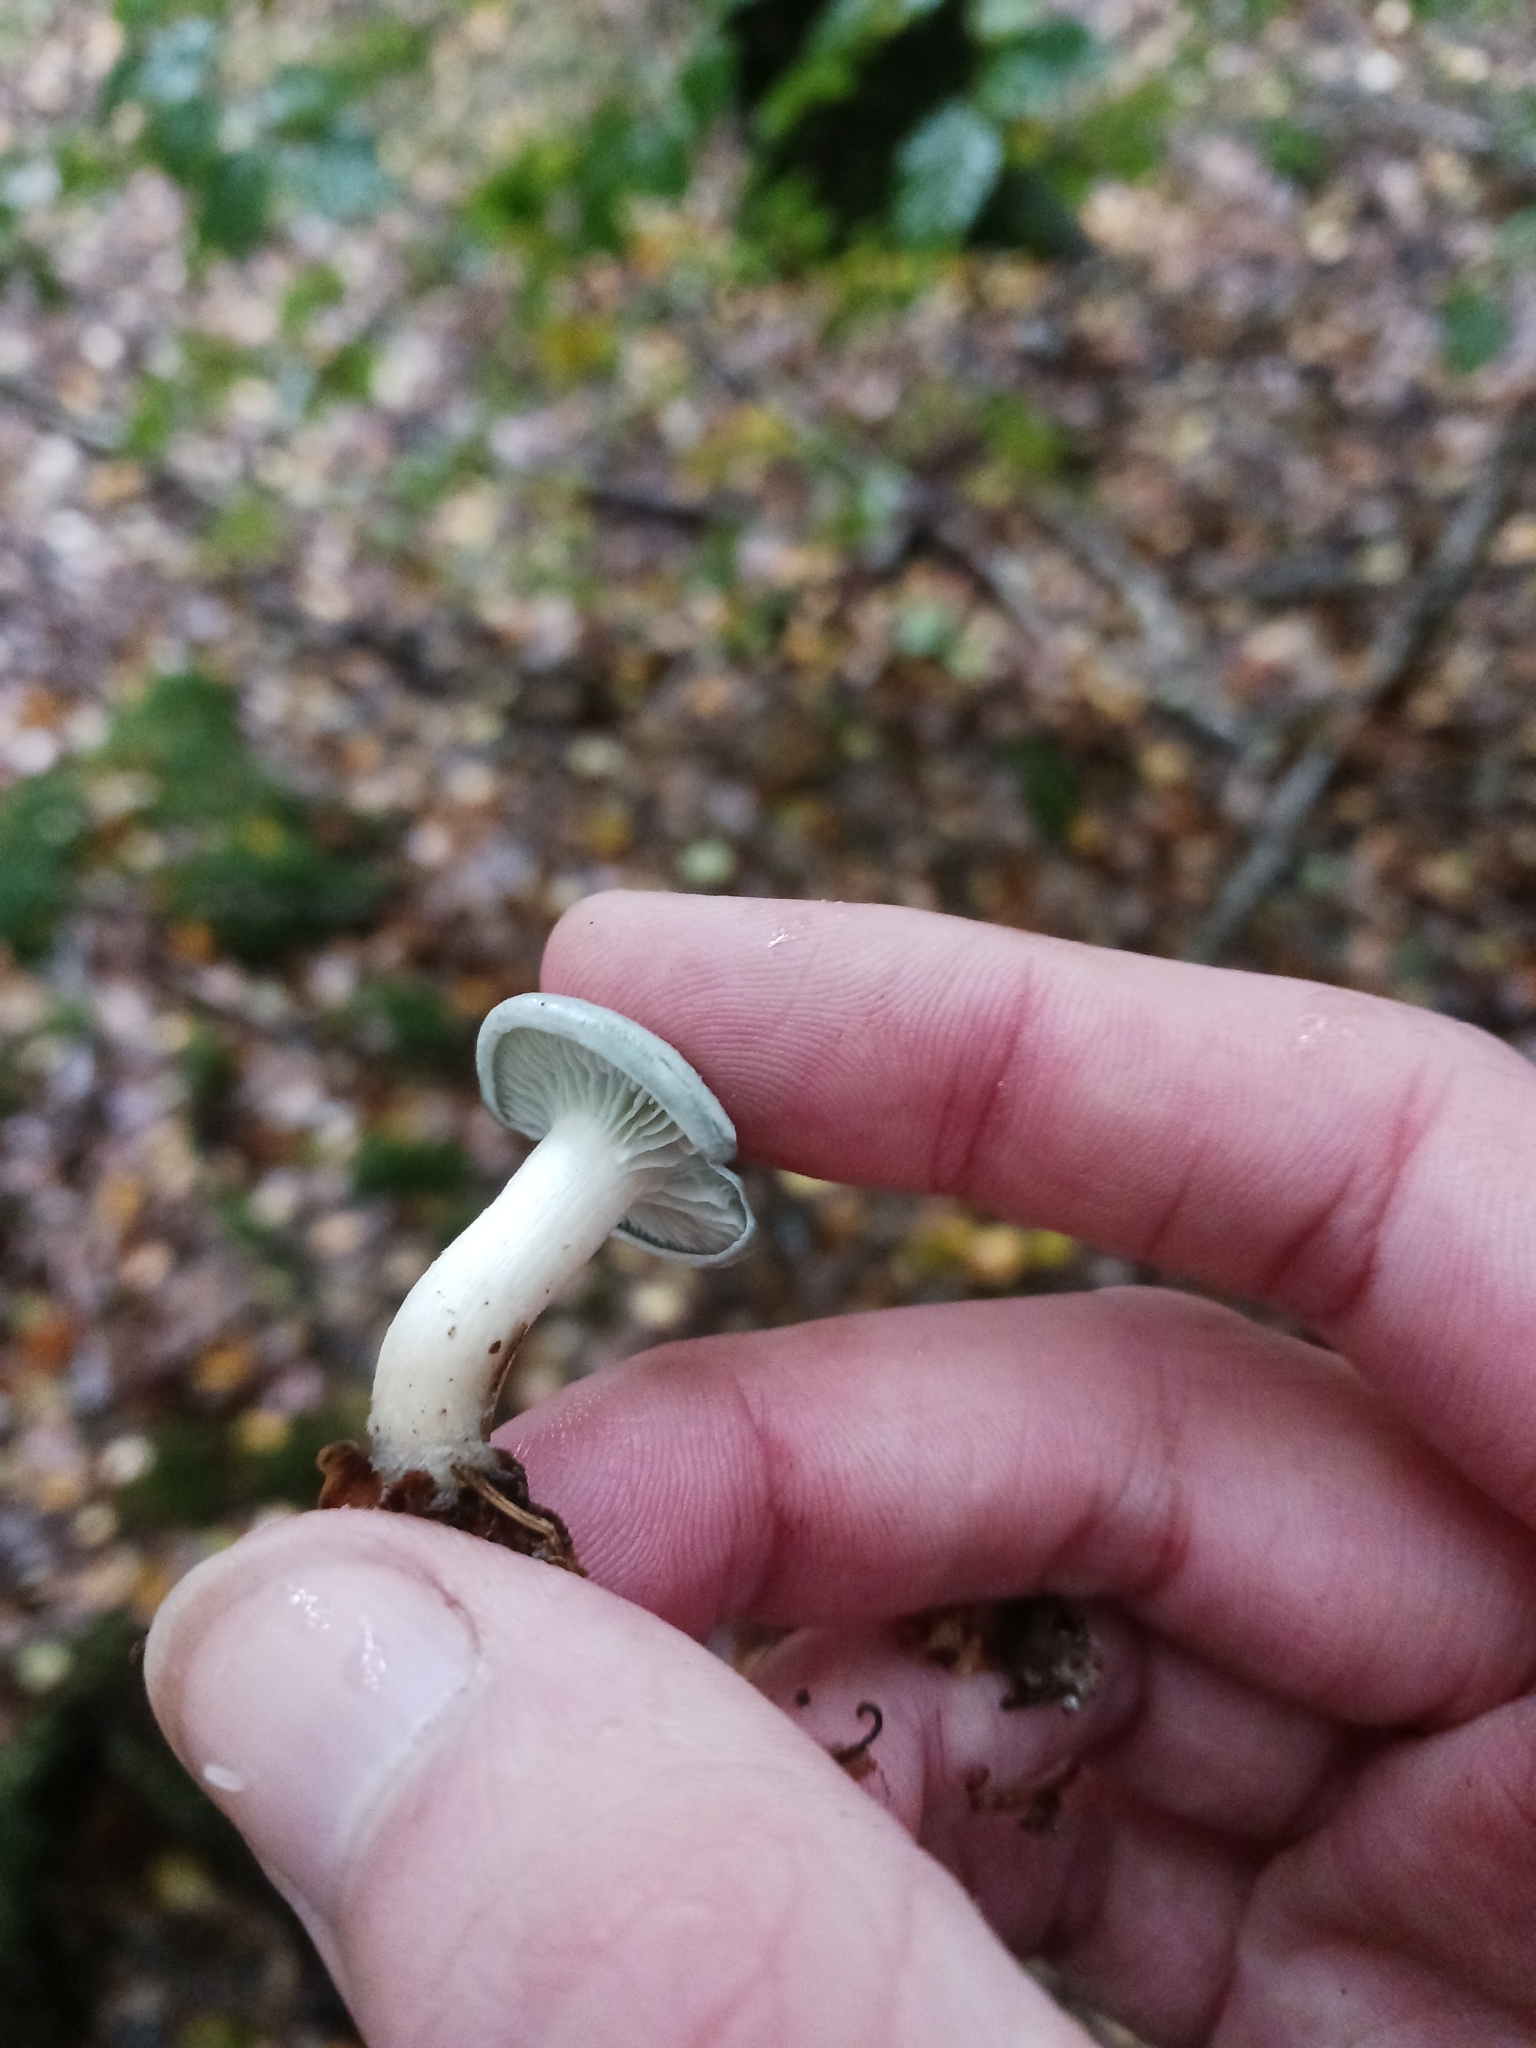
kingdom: Fungi
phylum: Basidiomycota
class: Agaricomycetes
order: Agaricales
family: Tricholomataceae
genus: Collybia
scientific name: Collybia
